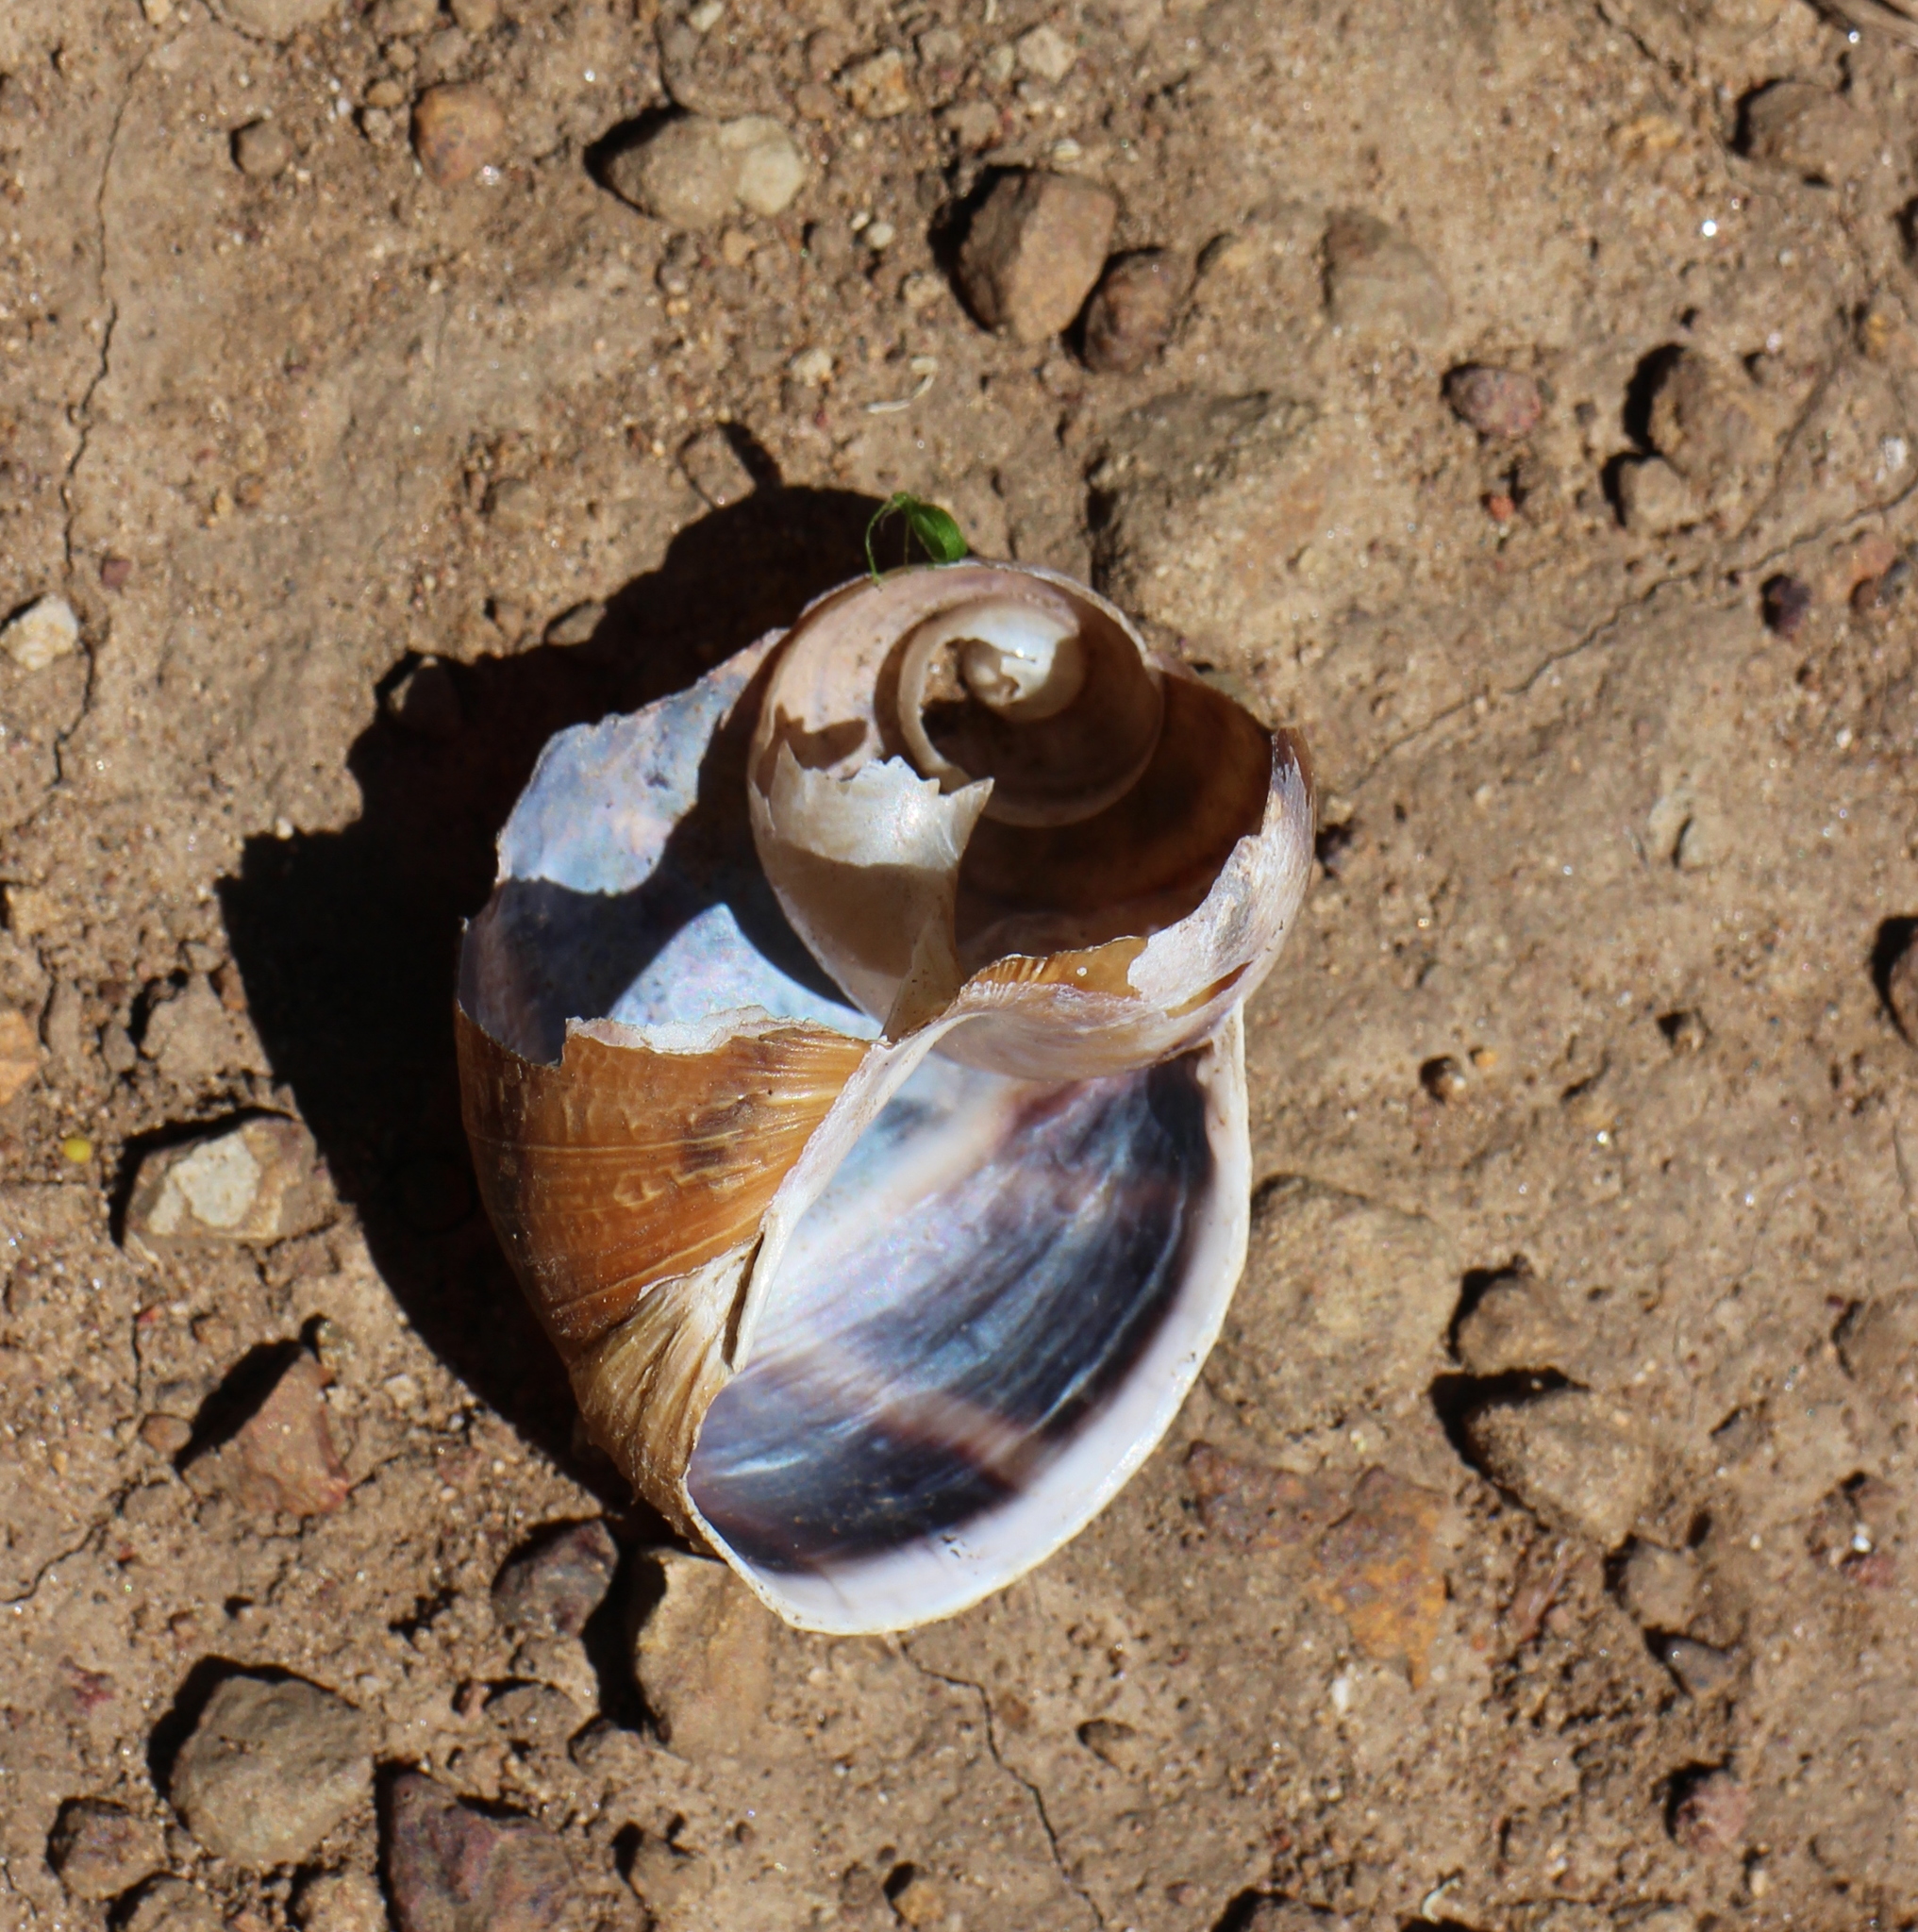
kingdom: Animalia
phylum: Mollusca
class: Gastropoda
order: Stylommatophora
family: Helicidae
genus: Cornu
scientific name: Cornu aspersum
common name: Brown garden snail
